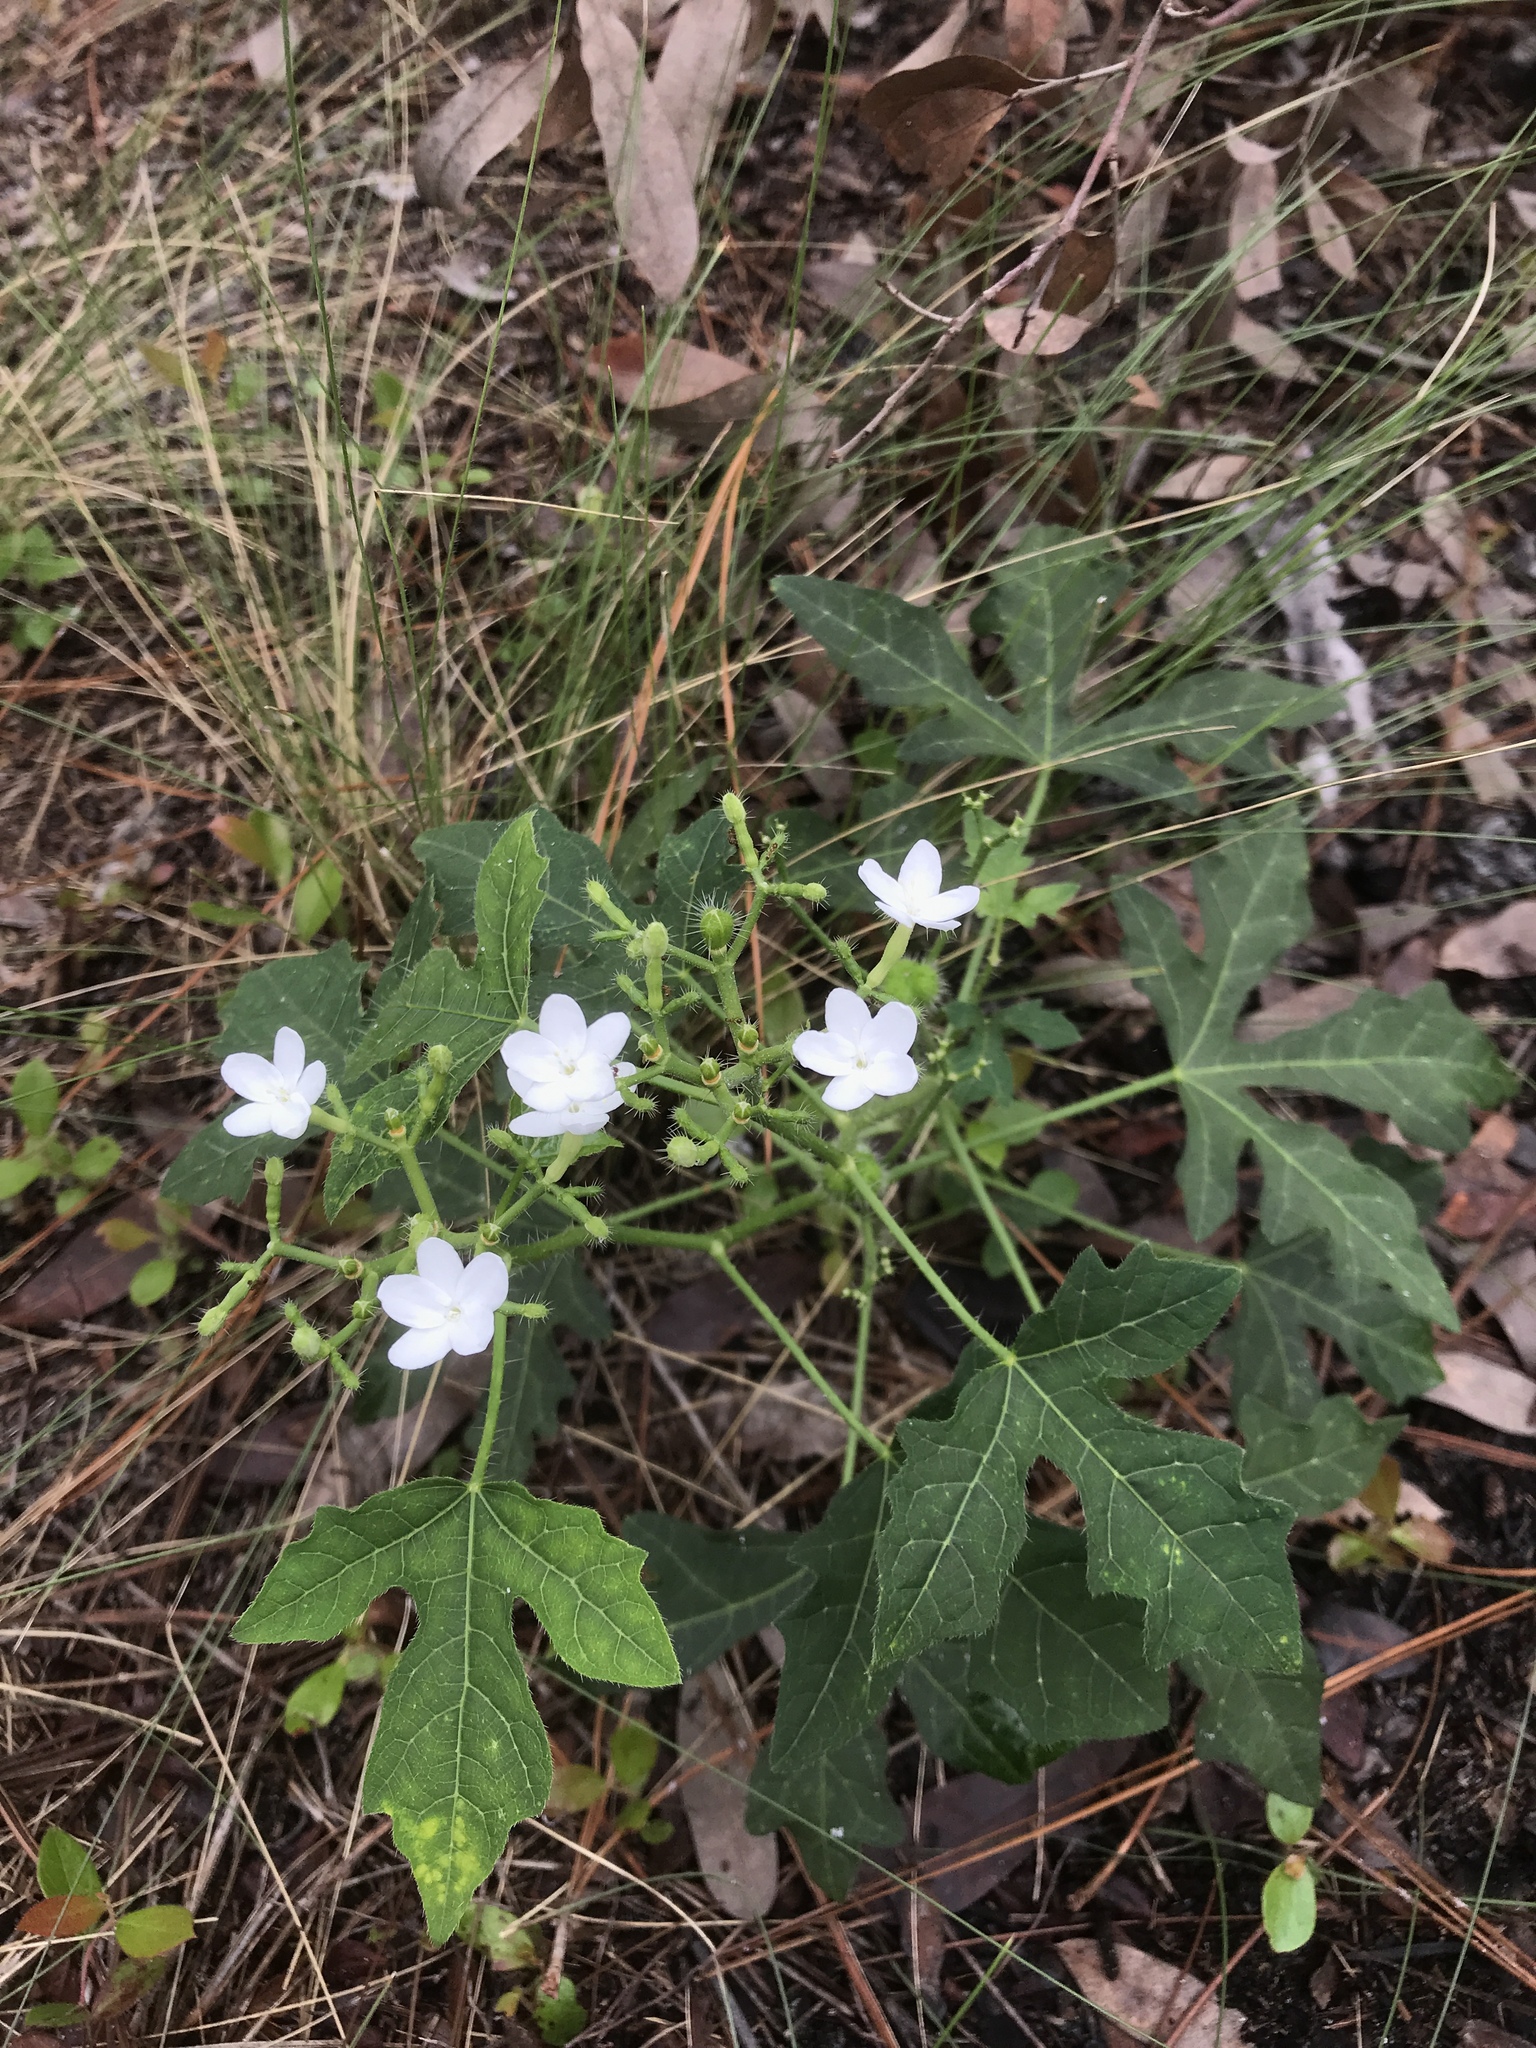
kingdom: Plantae
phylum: Tracheophyta
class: Magnoliopsida
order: Malpighiales
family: Euphorbiaceae
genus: Cnidoscolus
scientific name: Cnidoscolus stimulosus
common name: Bull-nettle
